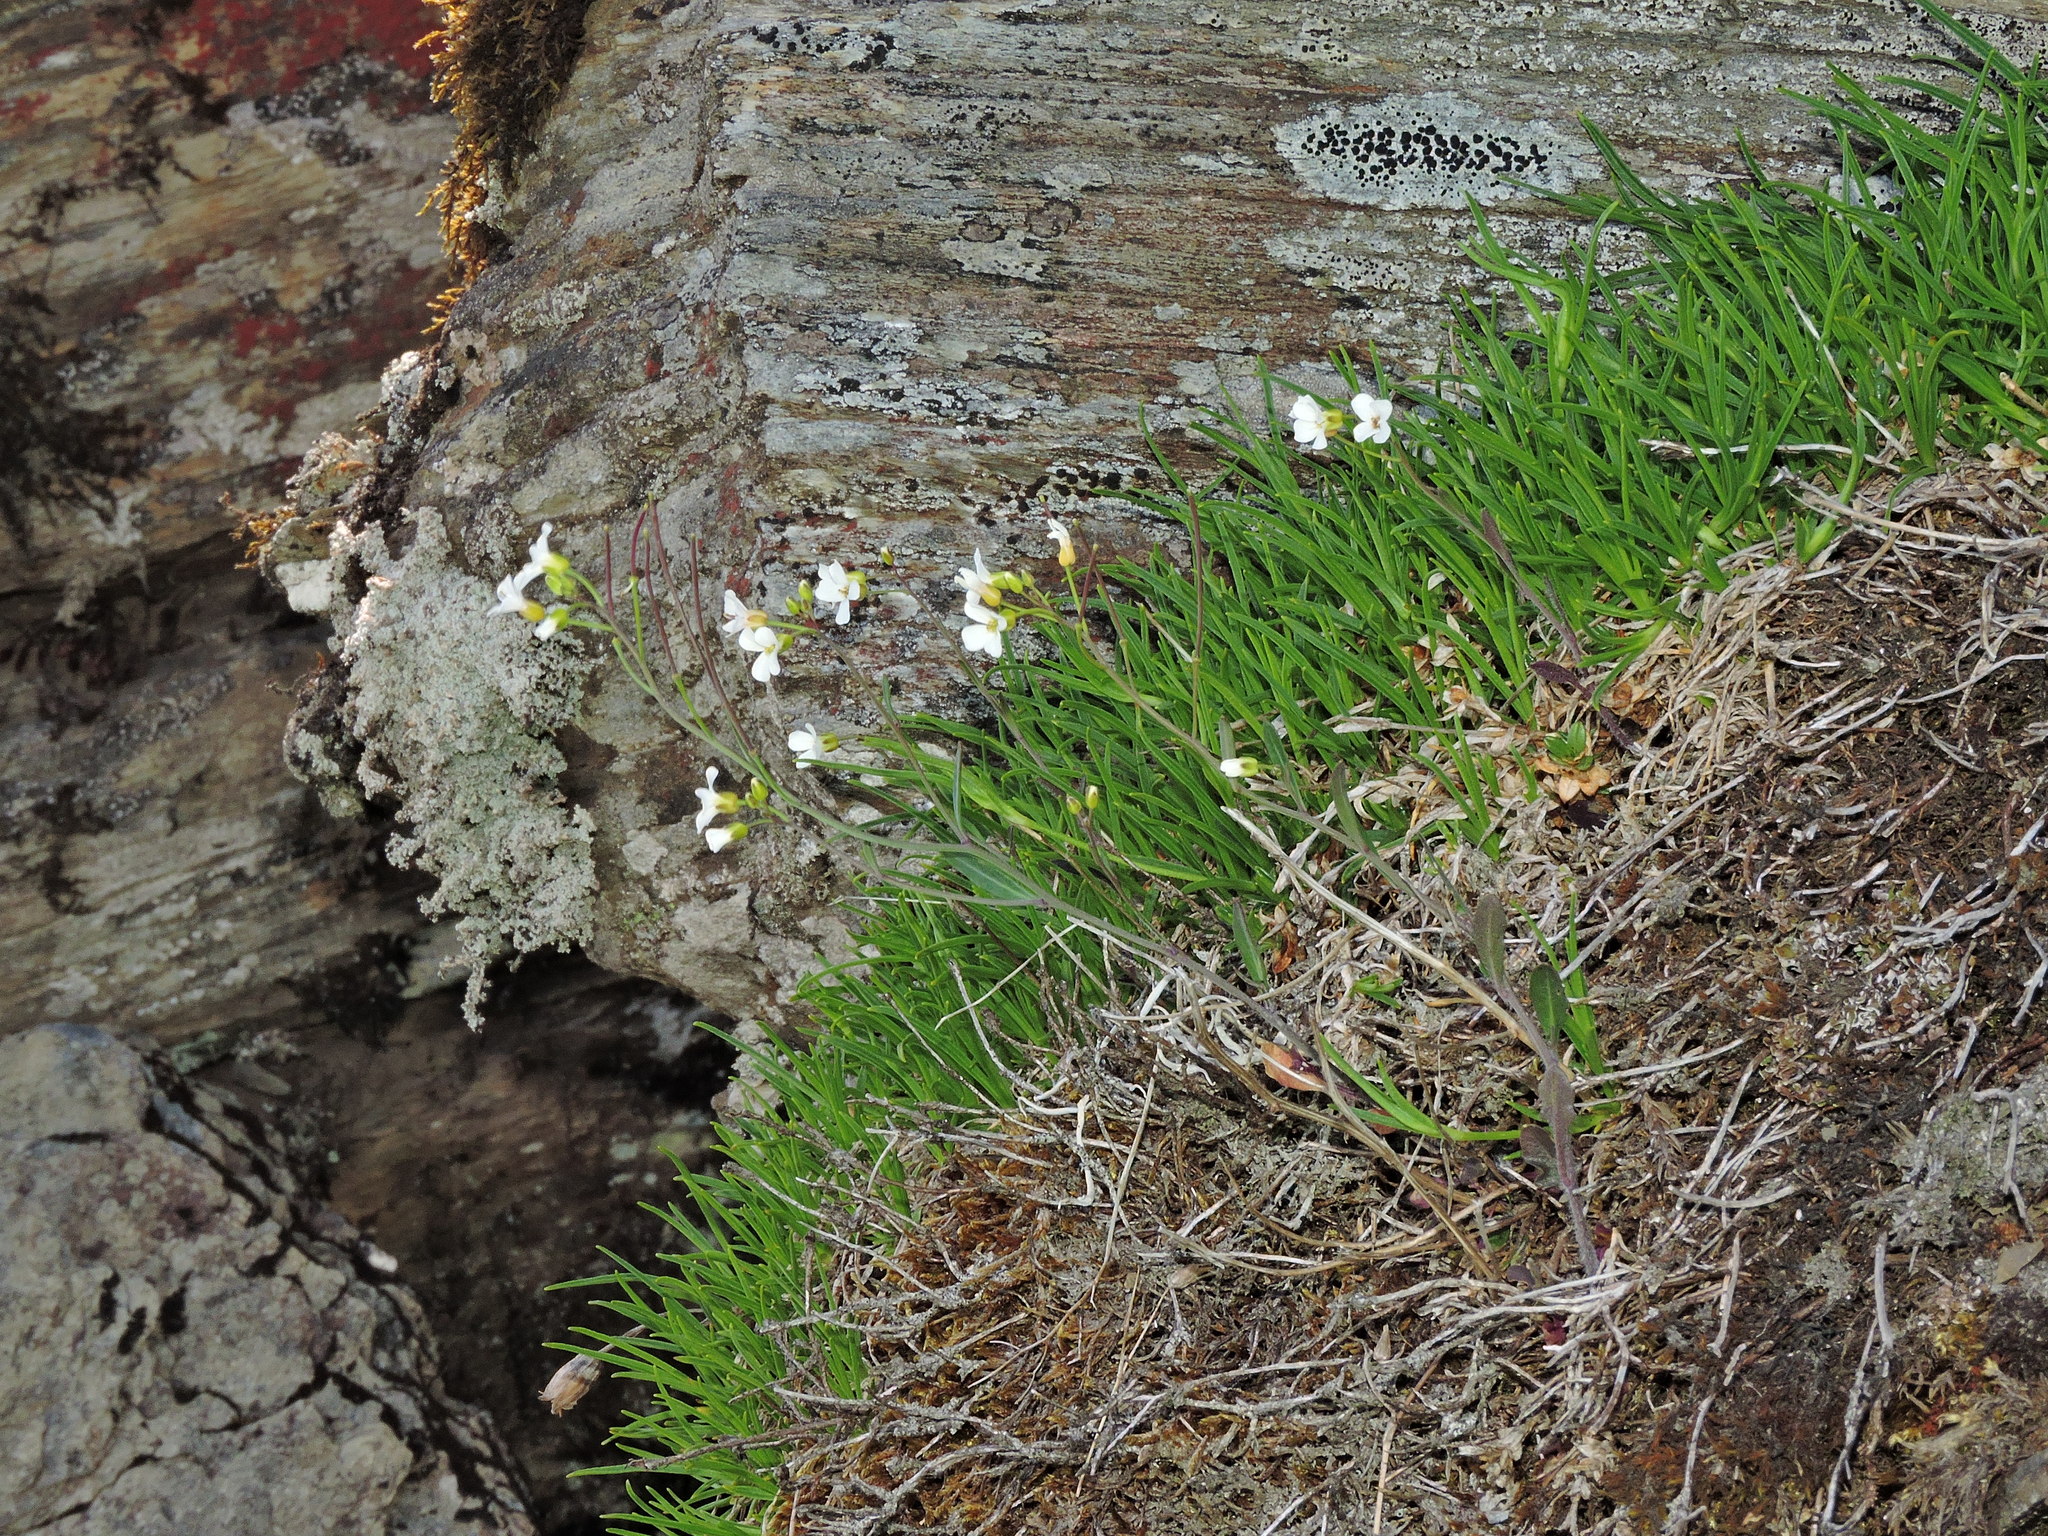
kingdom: Plantae
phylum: Tracheophyta
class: Magnoliopsida
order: Brassicales
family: Brassicaceae
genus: Arabidopsis
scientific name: Arabidopsis lyrata
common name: Lyrate rockcress
